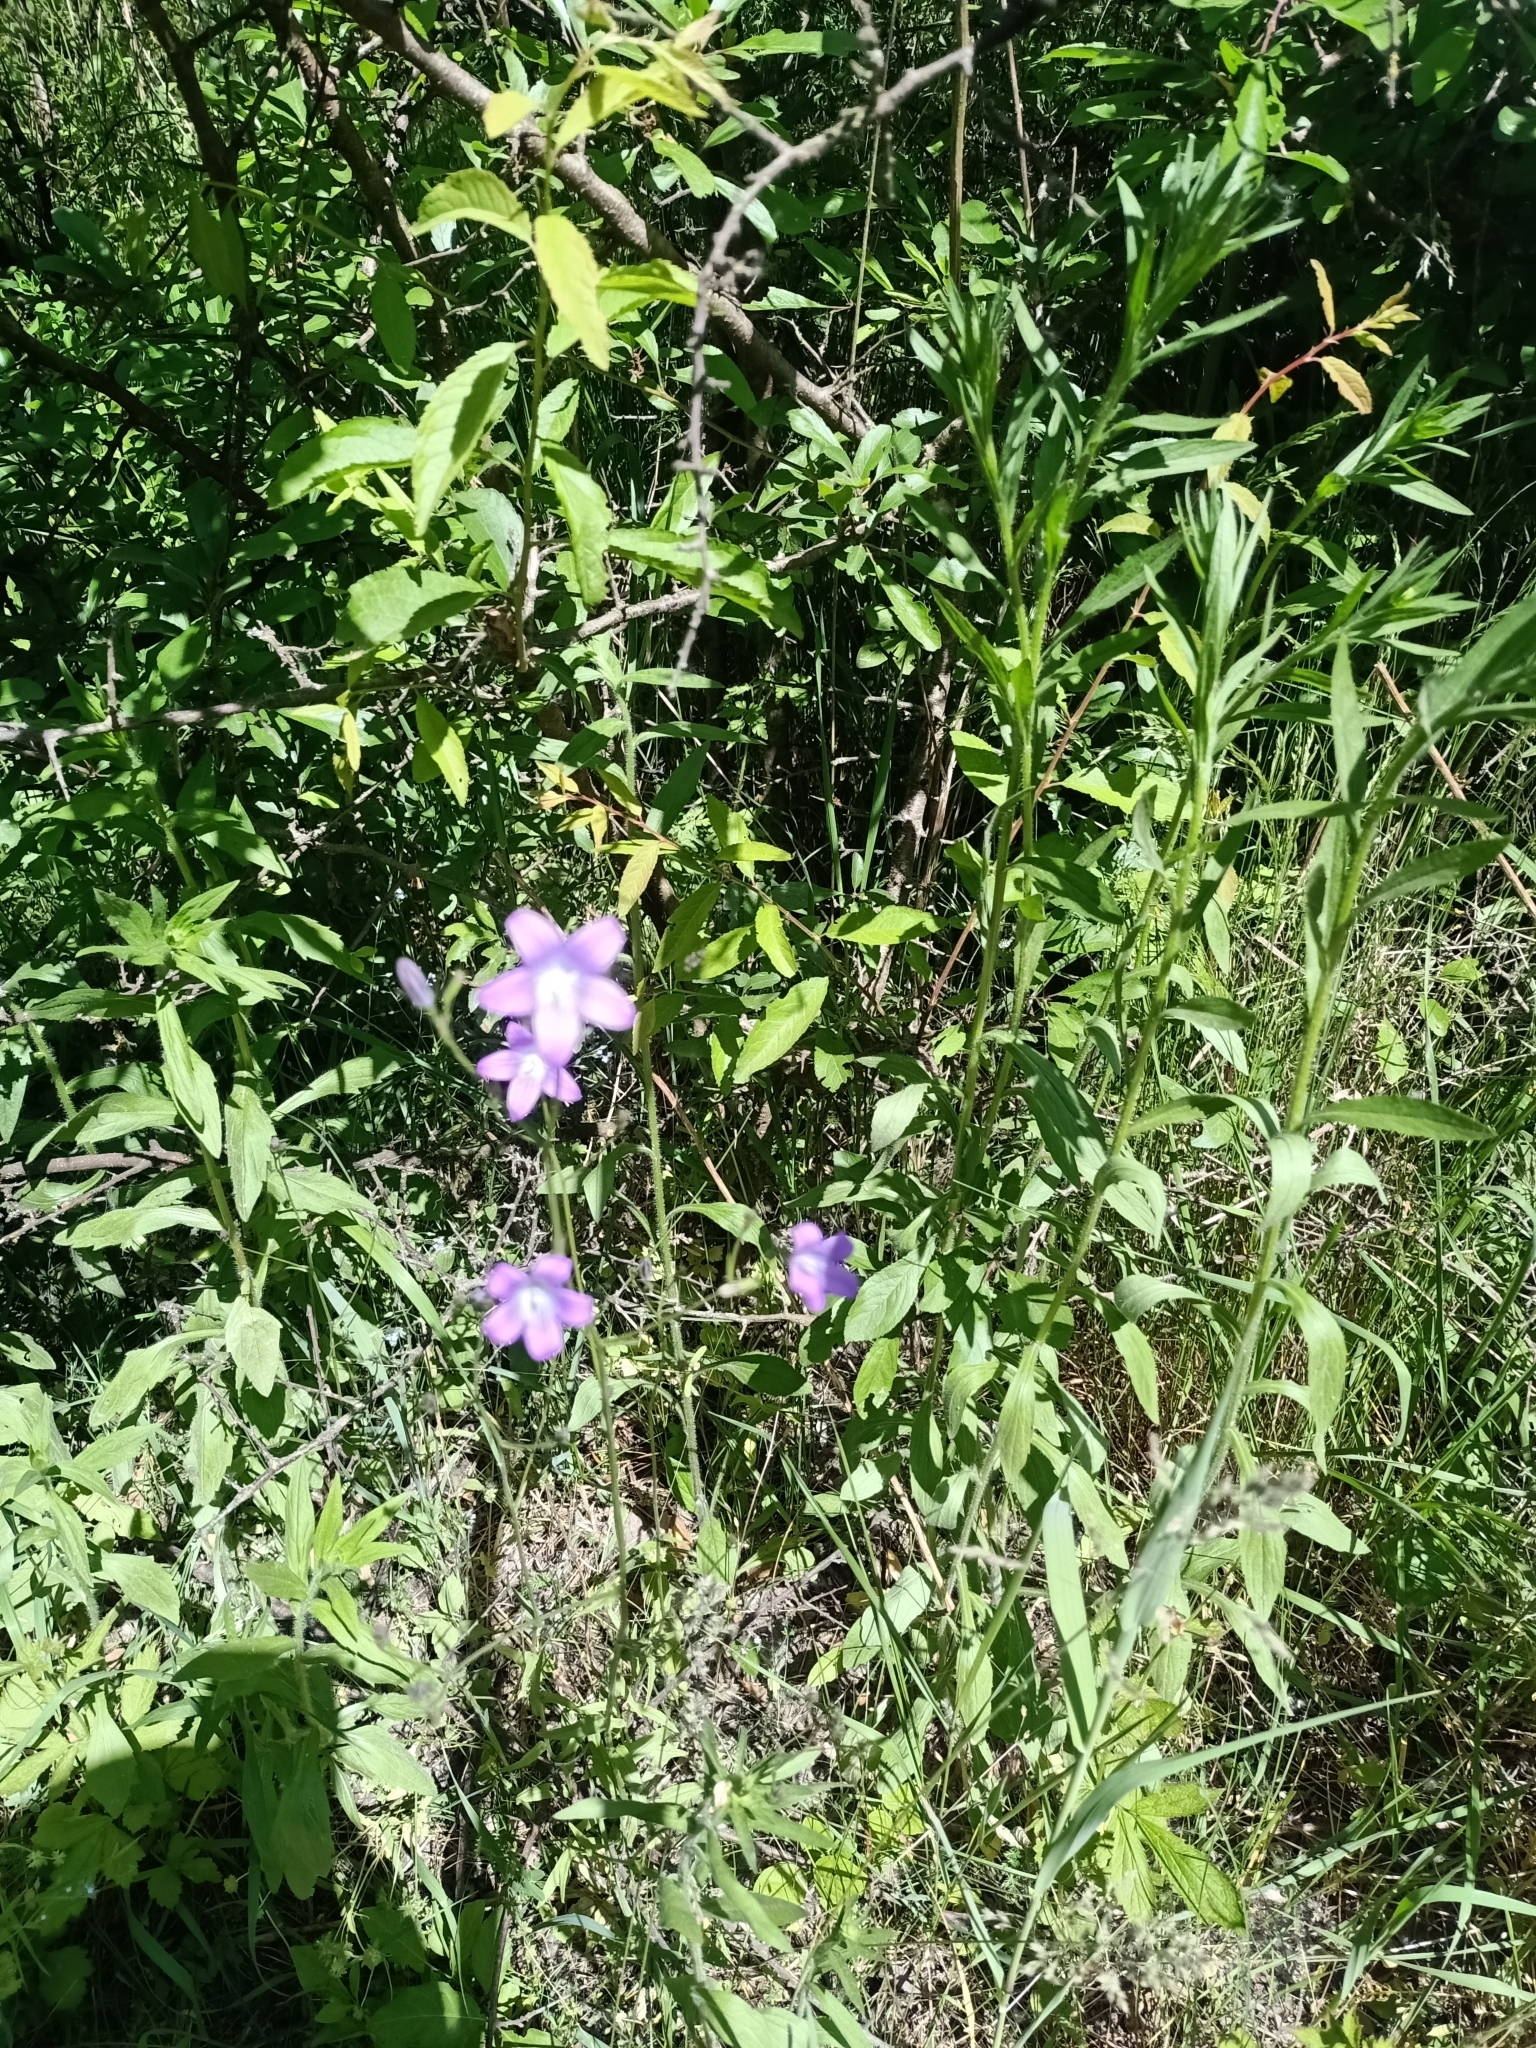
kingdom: Plantae
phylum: Tracheophyta
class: Magnoliopsida
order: Asterales
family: Campanulaceae
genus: Campanula
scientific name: Campanula patula
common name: Spreading bellflower
